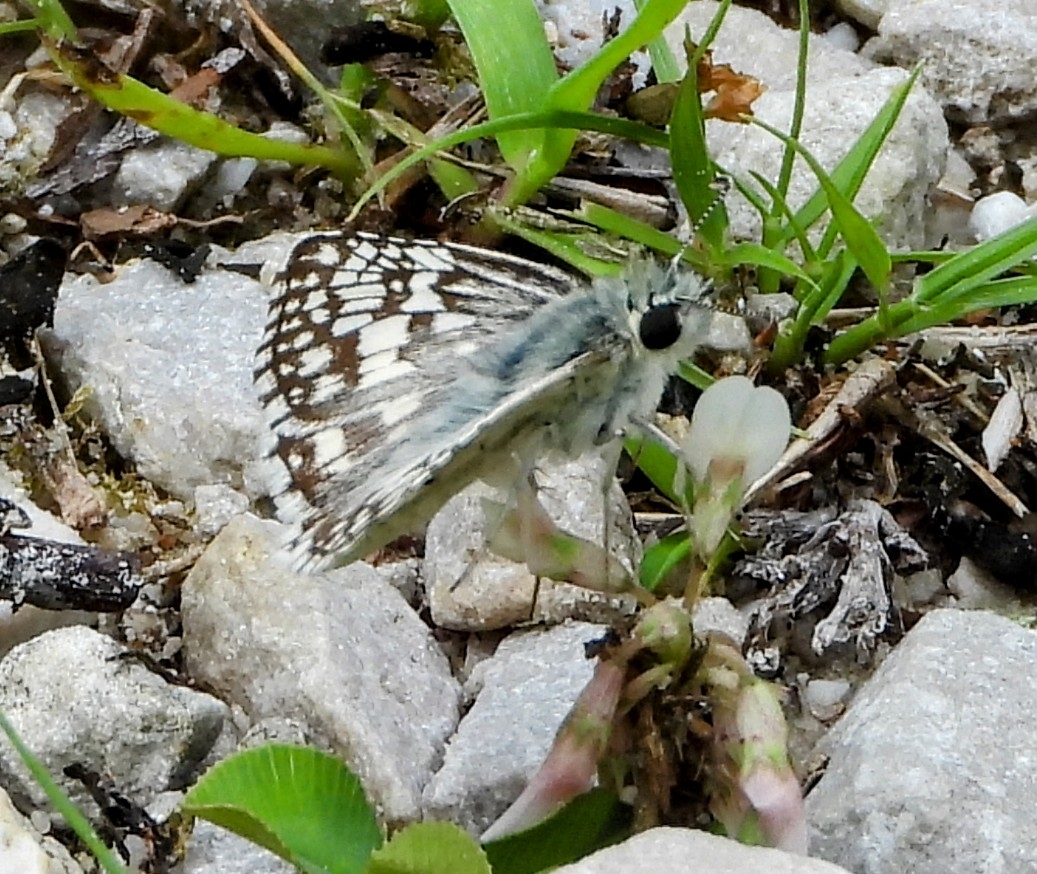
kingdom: Animalia
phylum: Arthropoda
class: Insecta
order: Lepidoptera
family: Hesperiidae
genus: Burnsius
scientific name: Burnsius communis
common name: Common checkered-skipper
